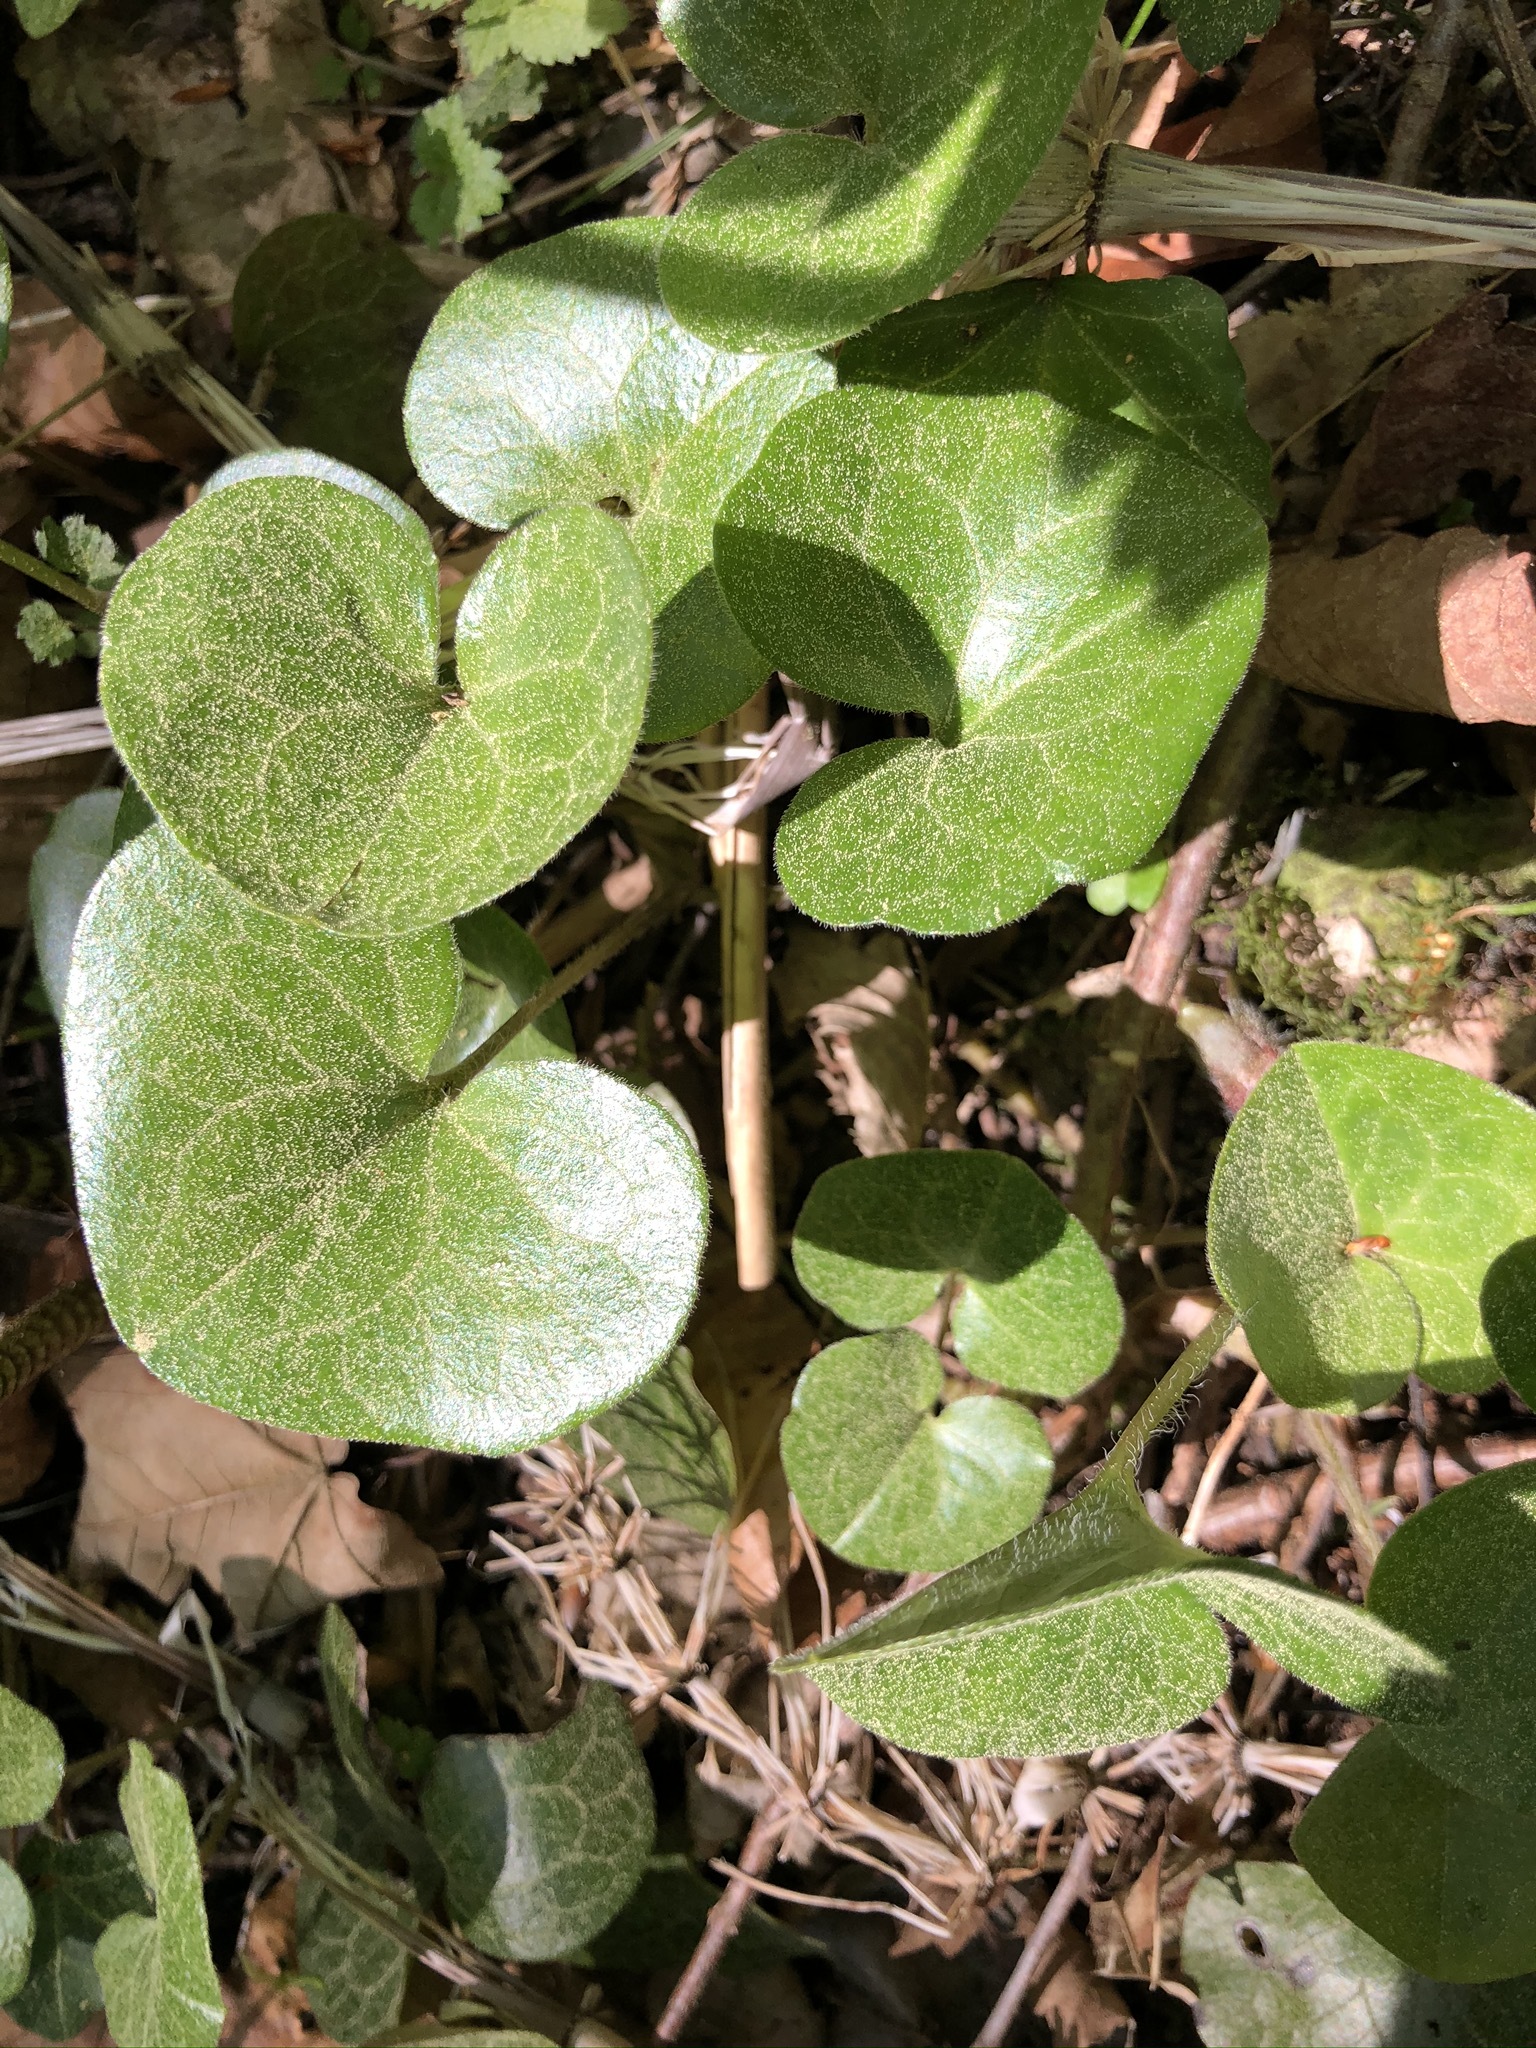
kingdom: Plantae
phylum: Tracheophyta
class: Magnoliopsida
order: Piperales
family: Aristolochiaceae
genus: Asarum
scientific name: Asarum europaeum
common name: Asarabacca
